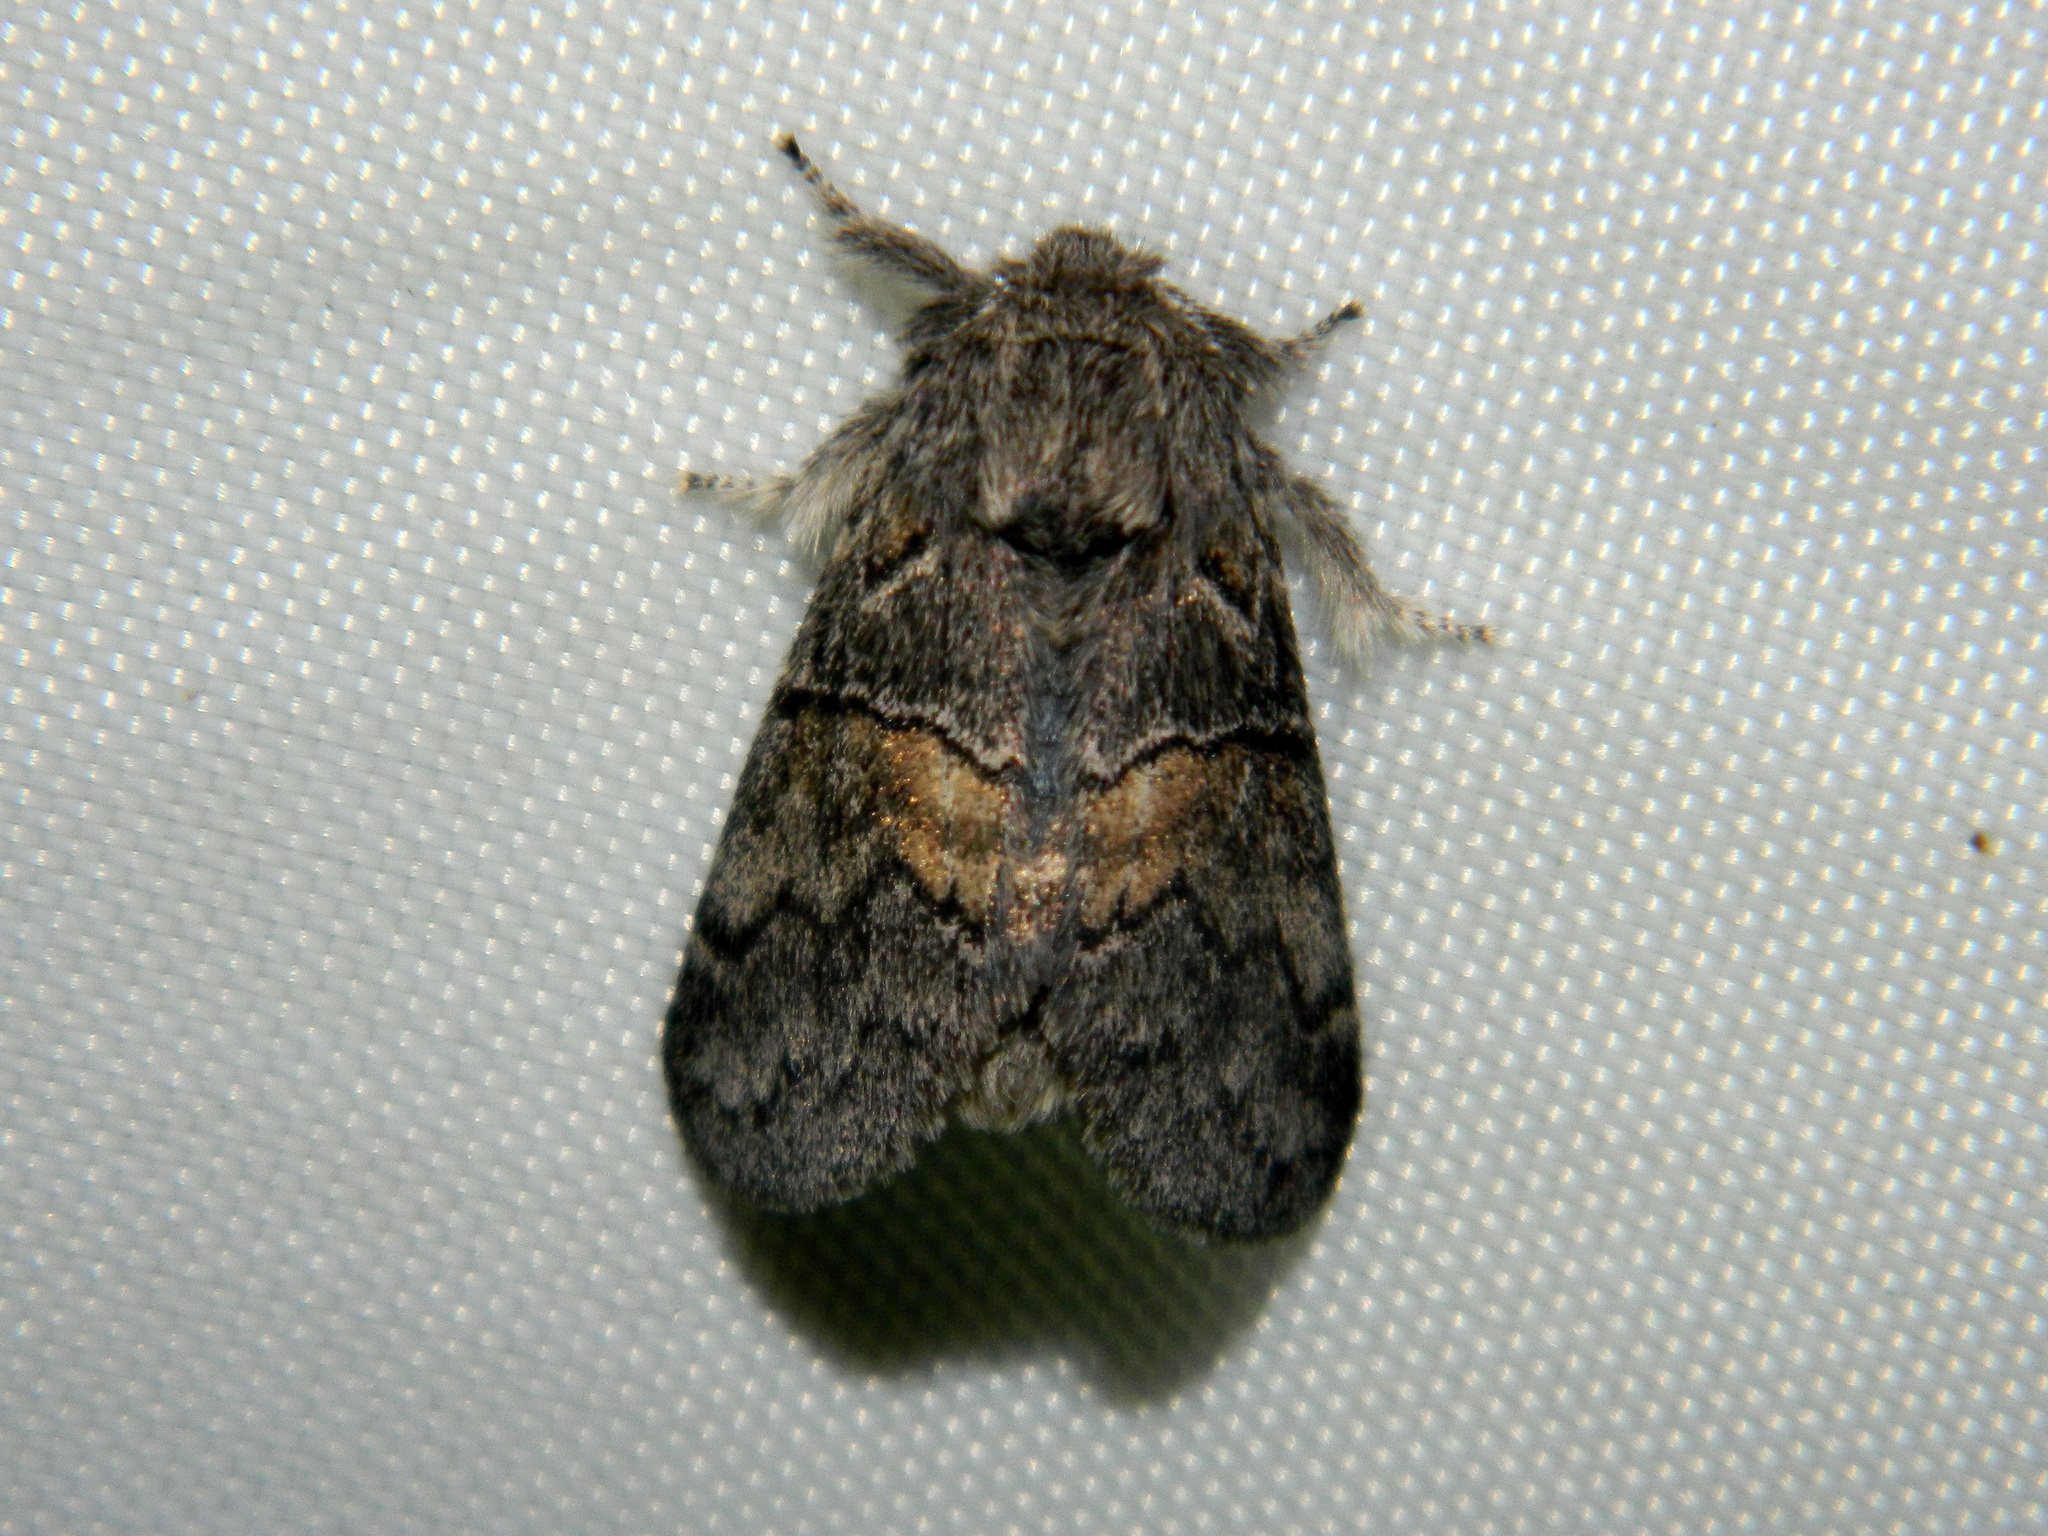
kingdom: Animalia
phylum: Arthropoda
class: Insecta
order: Lepidoptera
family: Notodontidae
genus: Gluphisia
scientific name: Gluphisia septentrionis
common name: Common gluphisia
